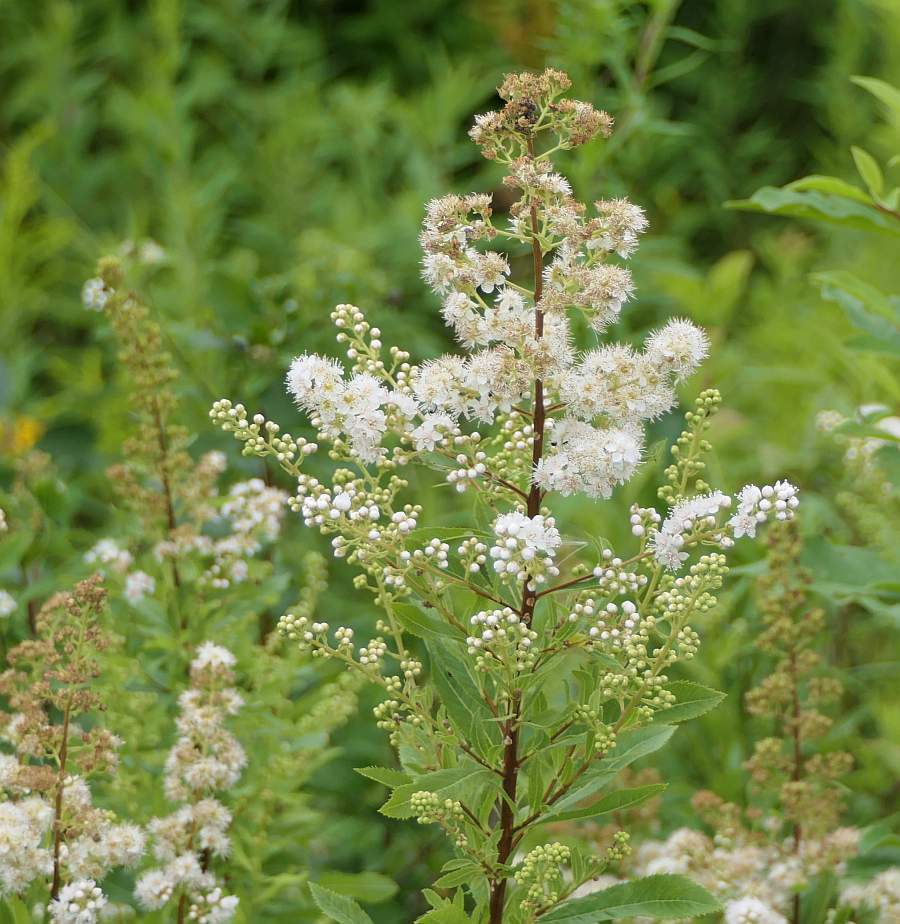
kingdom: Plantae
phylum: Tracheophyta
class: Magnoliopsida
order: Rosales
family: Rosaceae
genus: Spiraea
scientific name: Spiraea alba
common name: Pale bridewort
